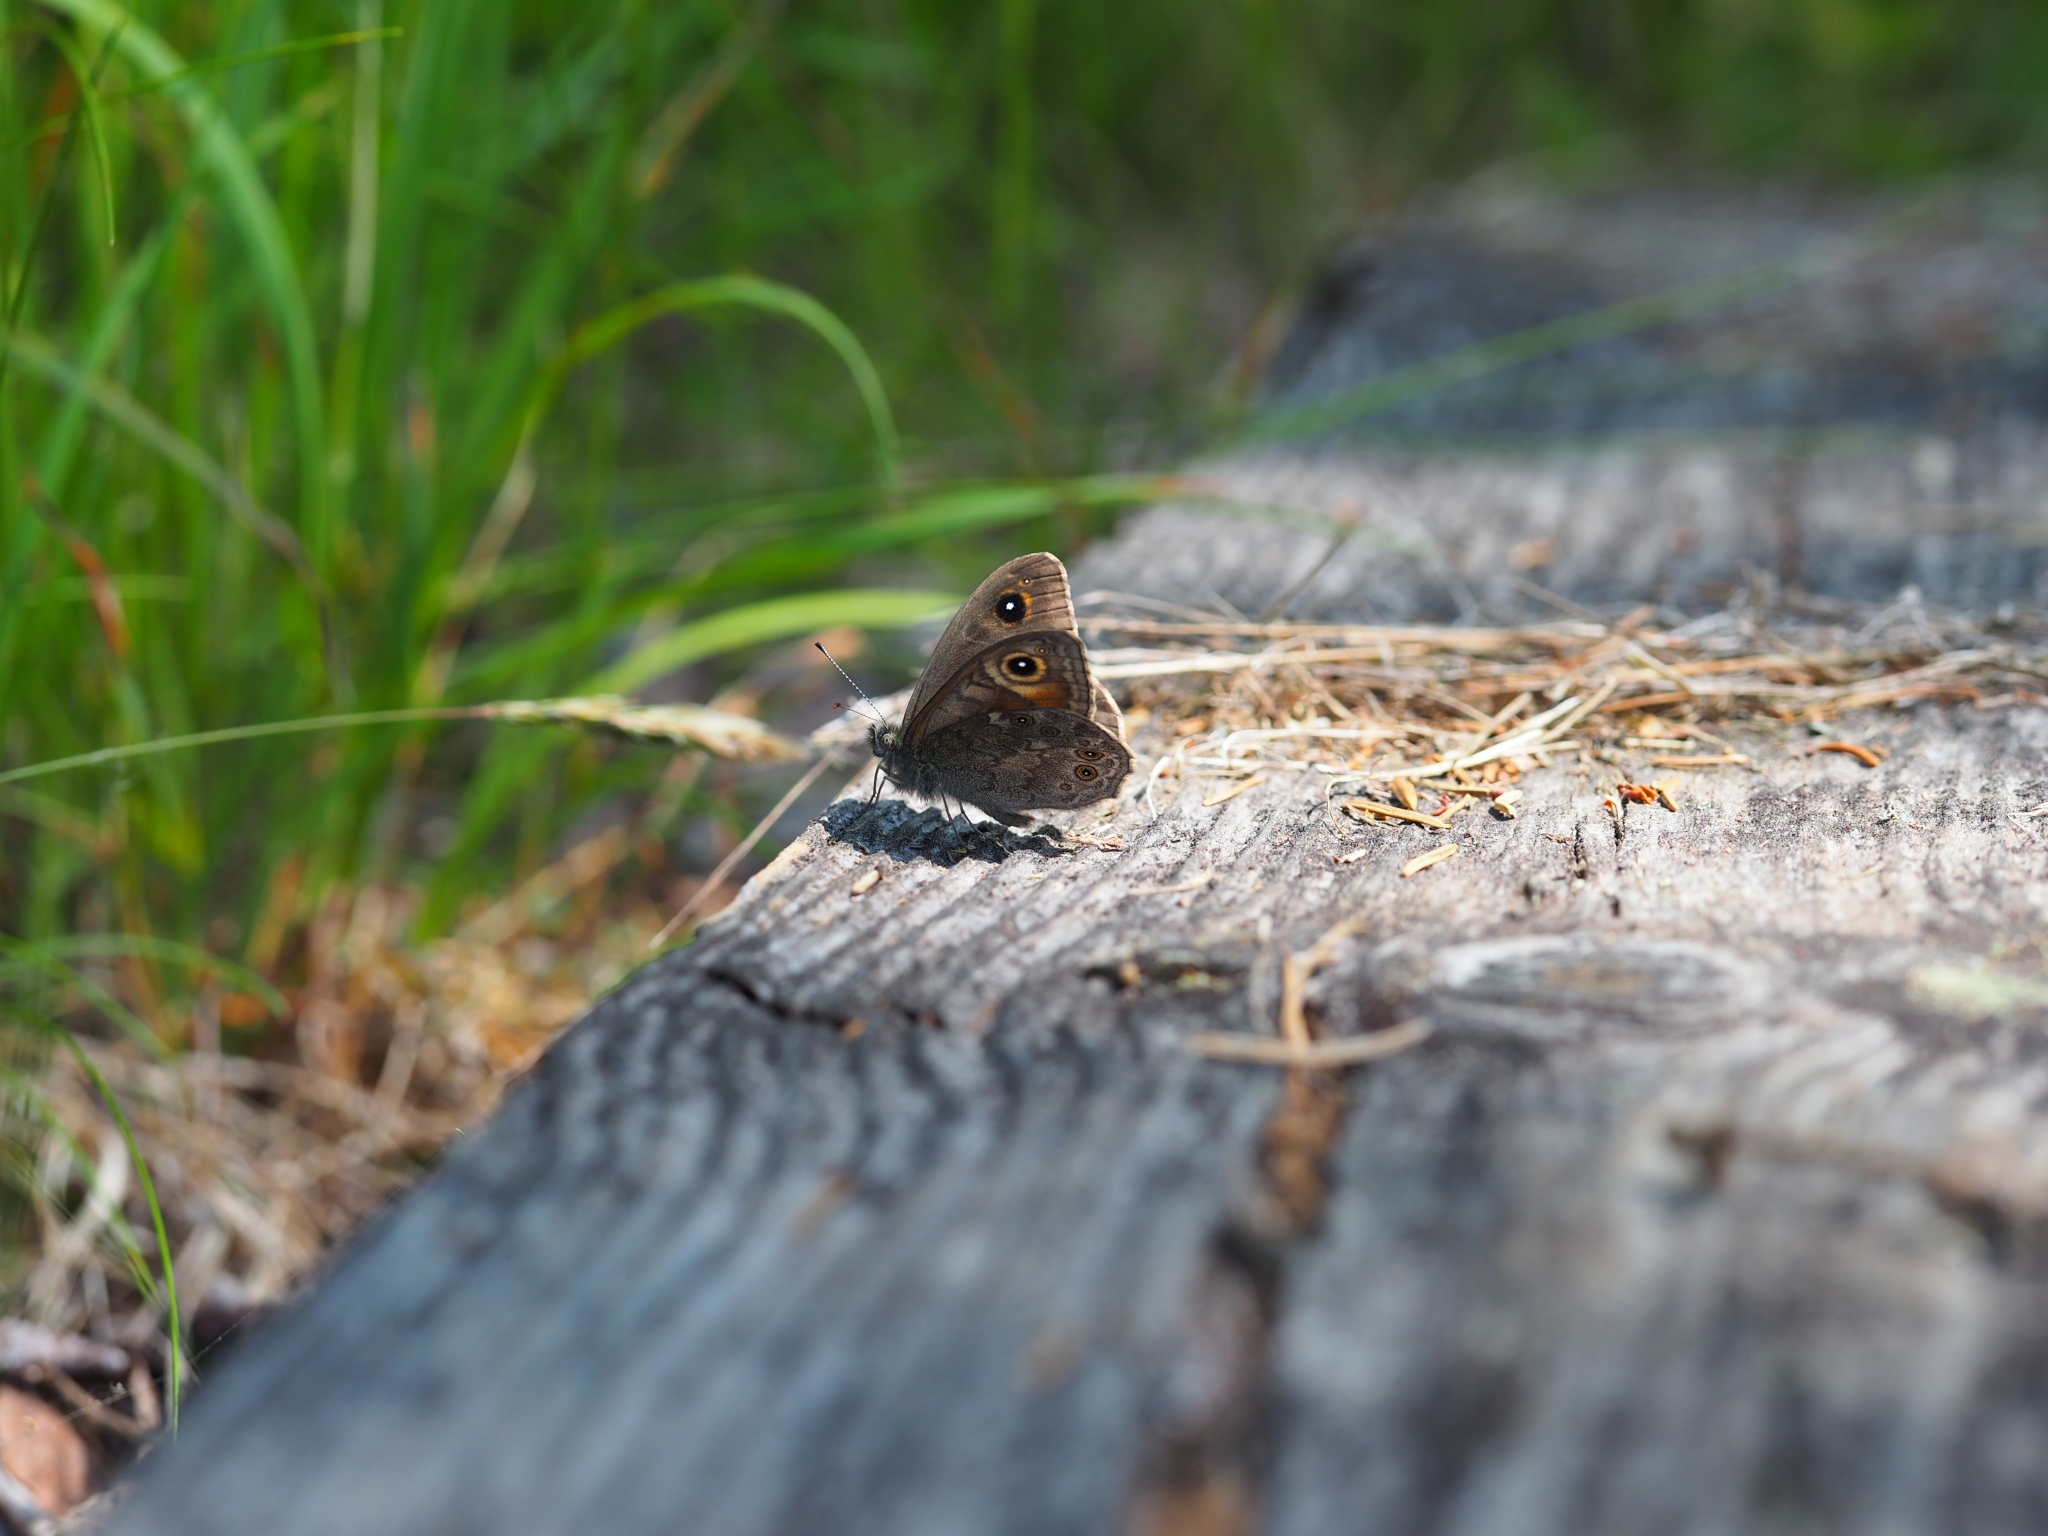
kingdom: Animalia
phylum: Arthropoda
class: Insecta
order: Lepidoptera
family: Nymphalidae
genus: Pararge
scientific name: Pararge Lasiommata maera
